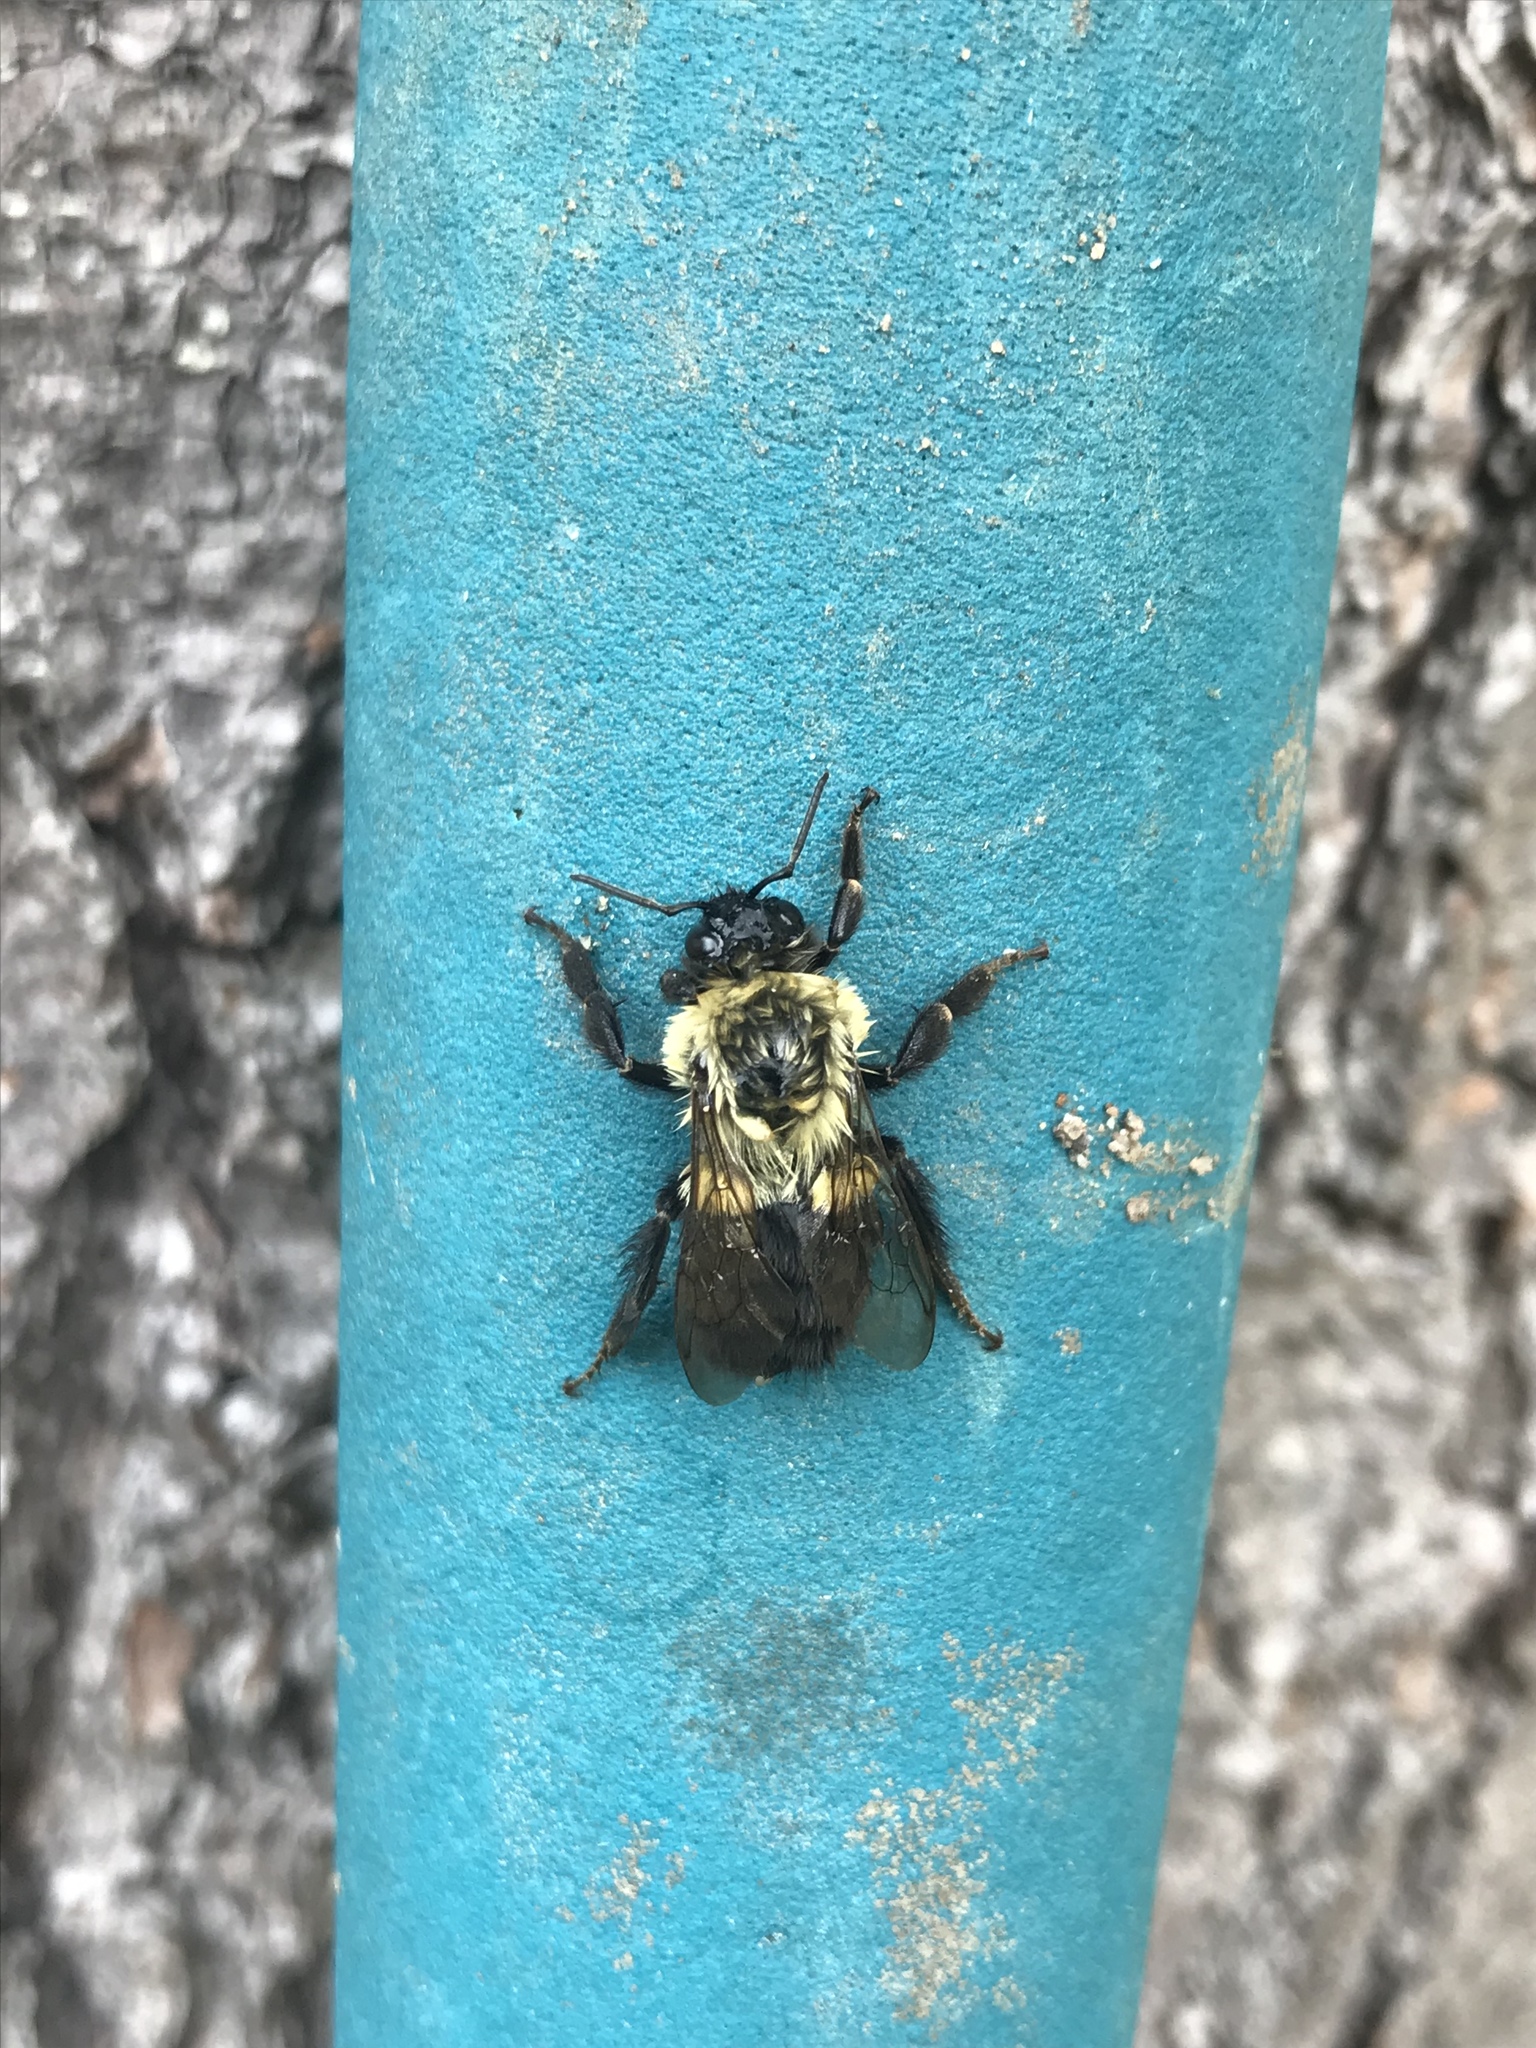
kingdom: Animalia
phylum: Arthropoda
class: Insecta
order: Hymenoptera
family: Apidae
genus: Bombus
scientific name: Bombus impatiens
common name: Common eastern bumble bee
